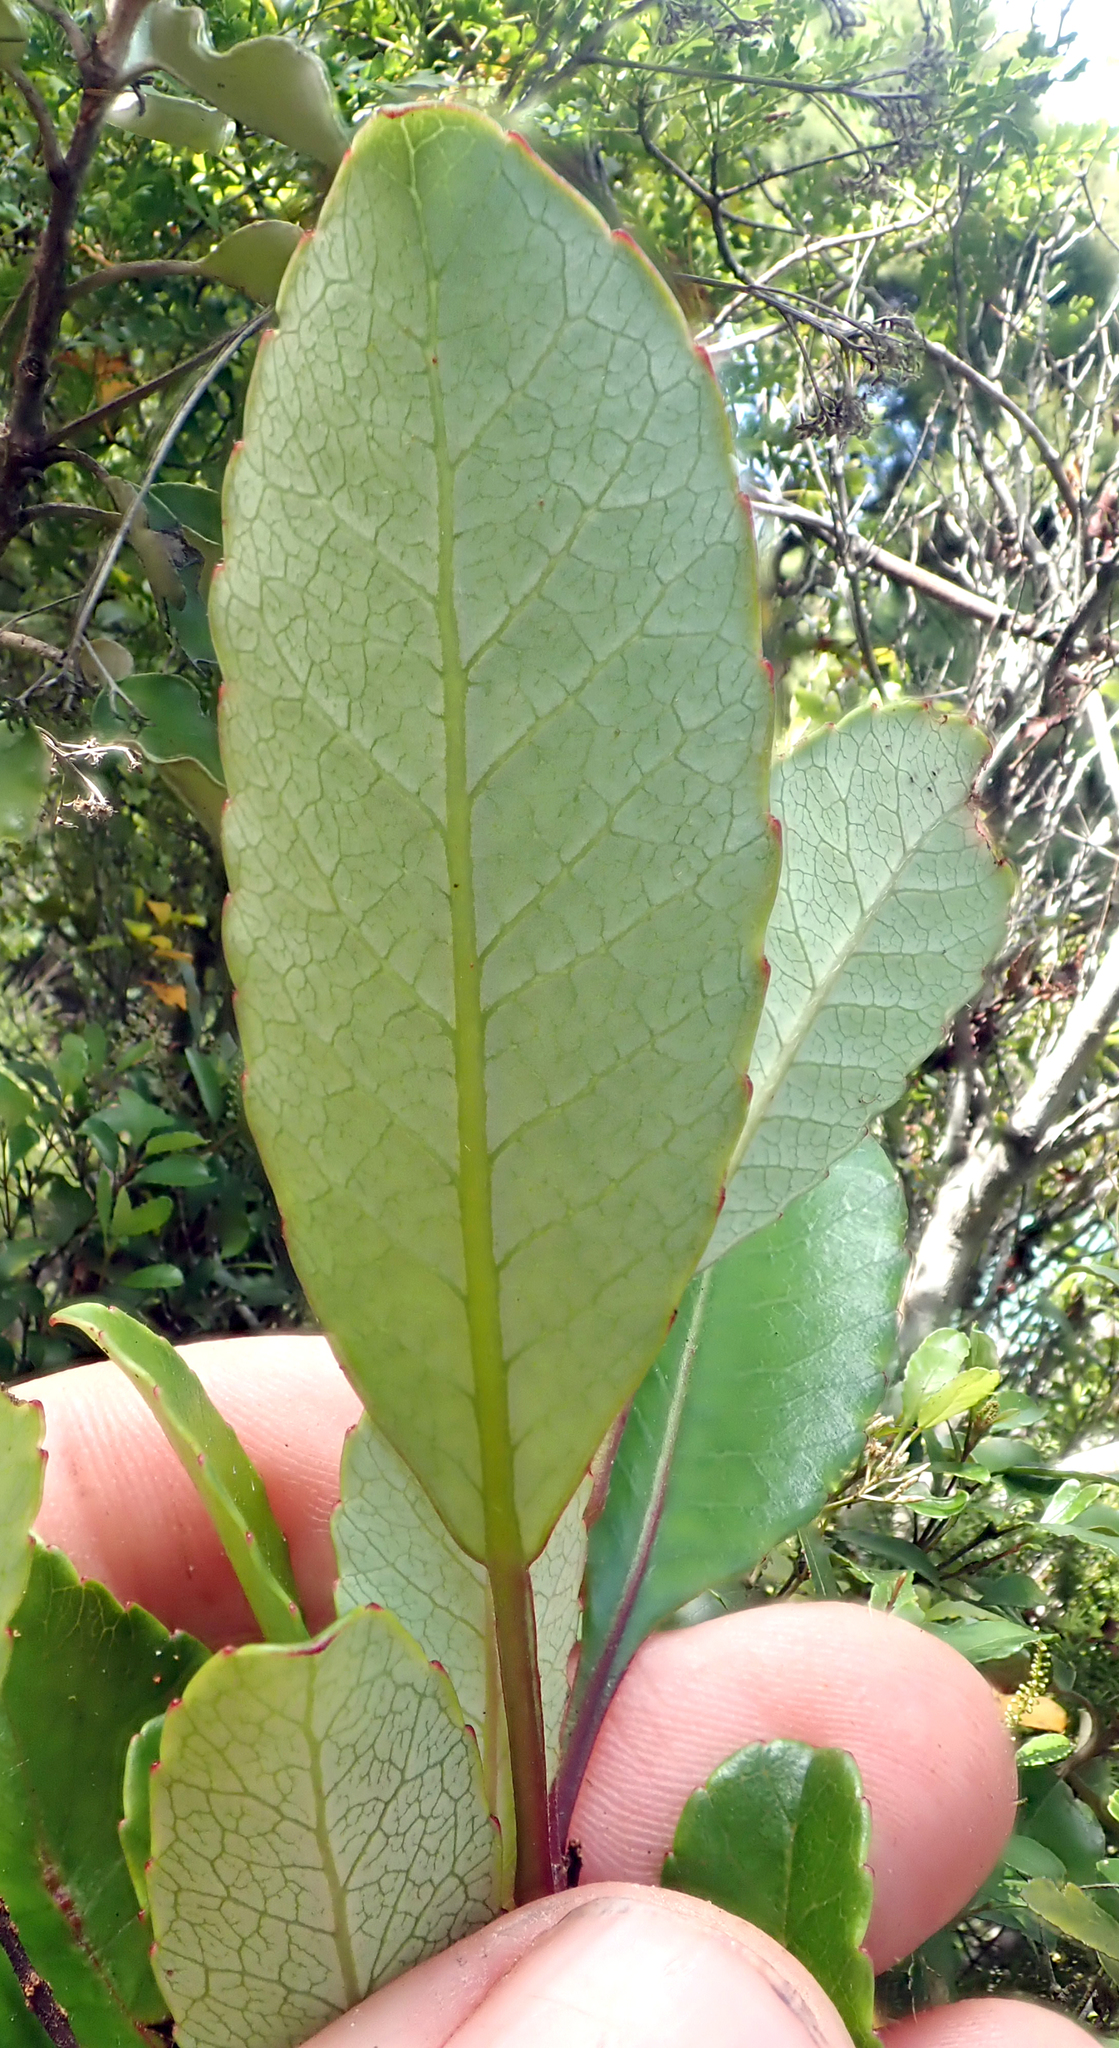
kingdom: Plantae
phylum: Tracheophyta
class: Magnoliopsida
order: Oxalidales
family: Cunoniaceae
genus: Pterophylla
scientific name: Pterophylla sylvicola
